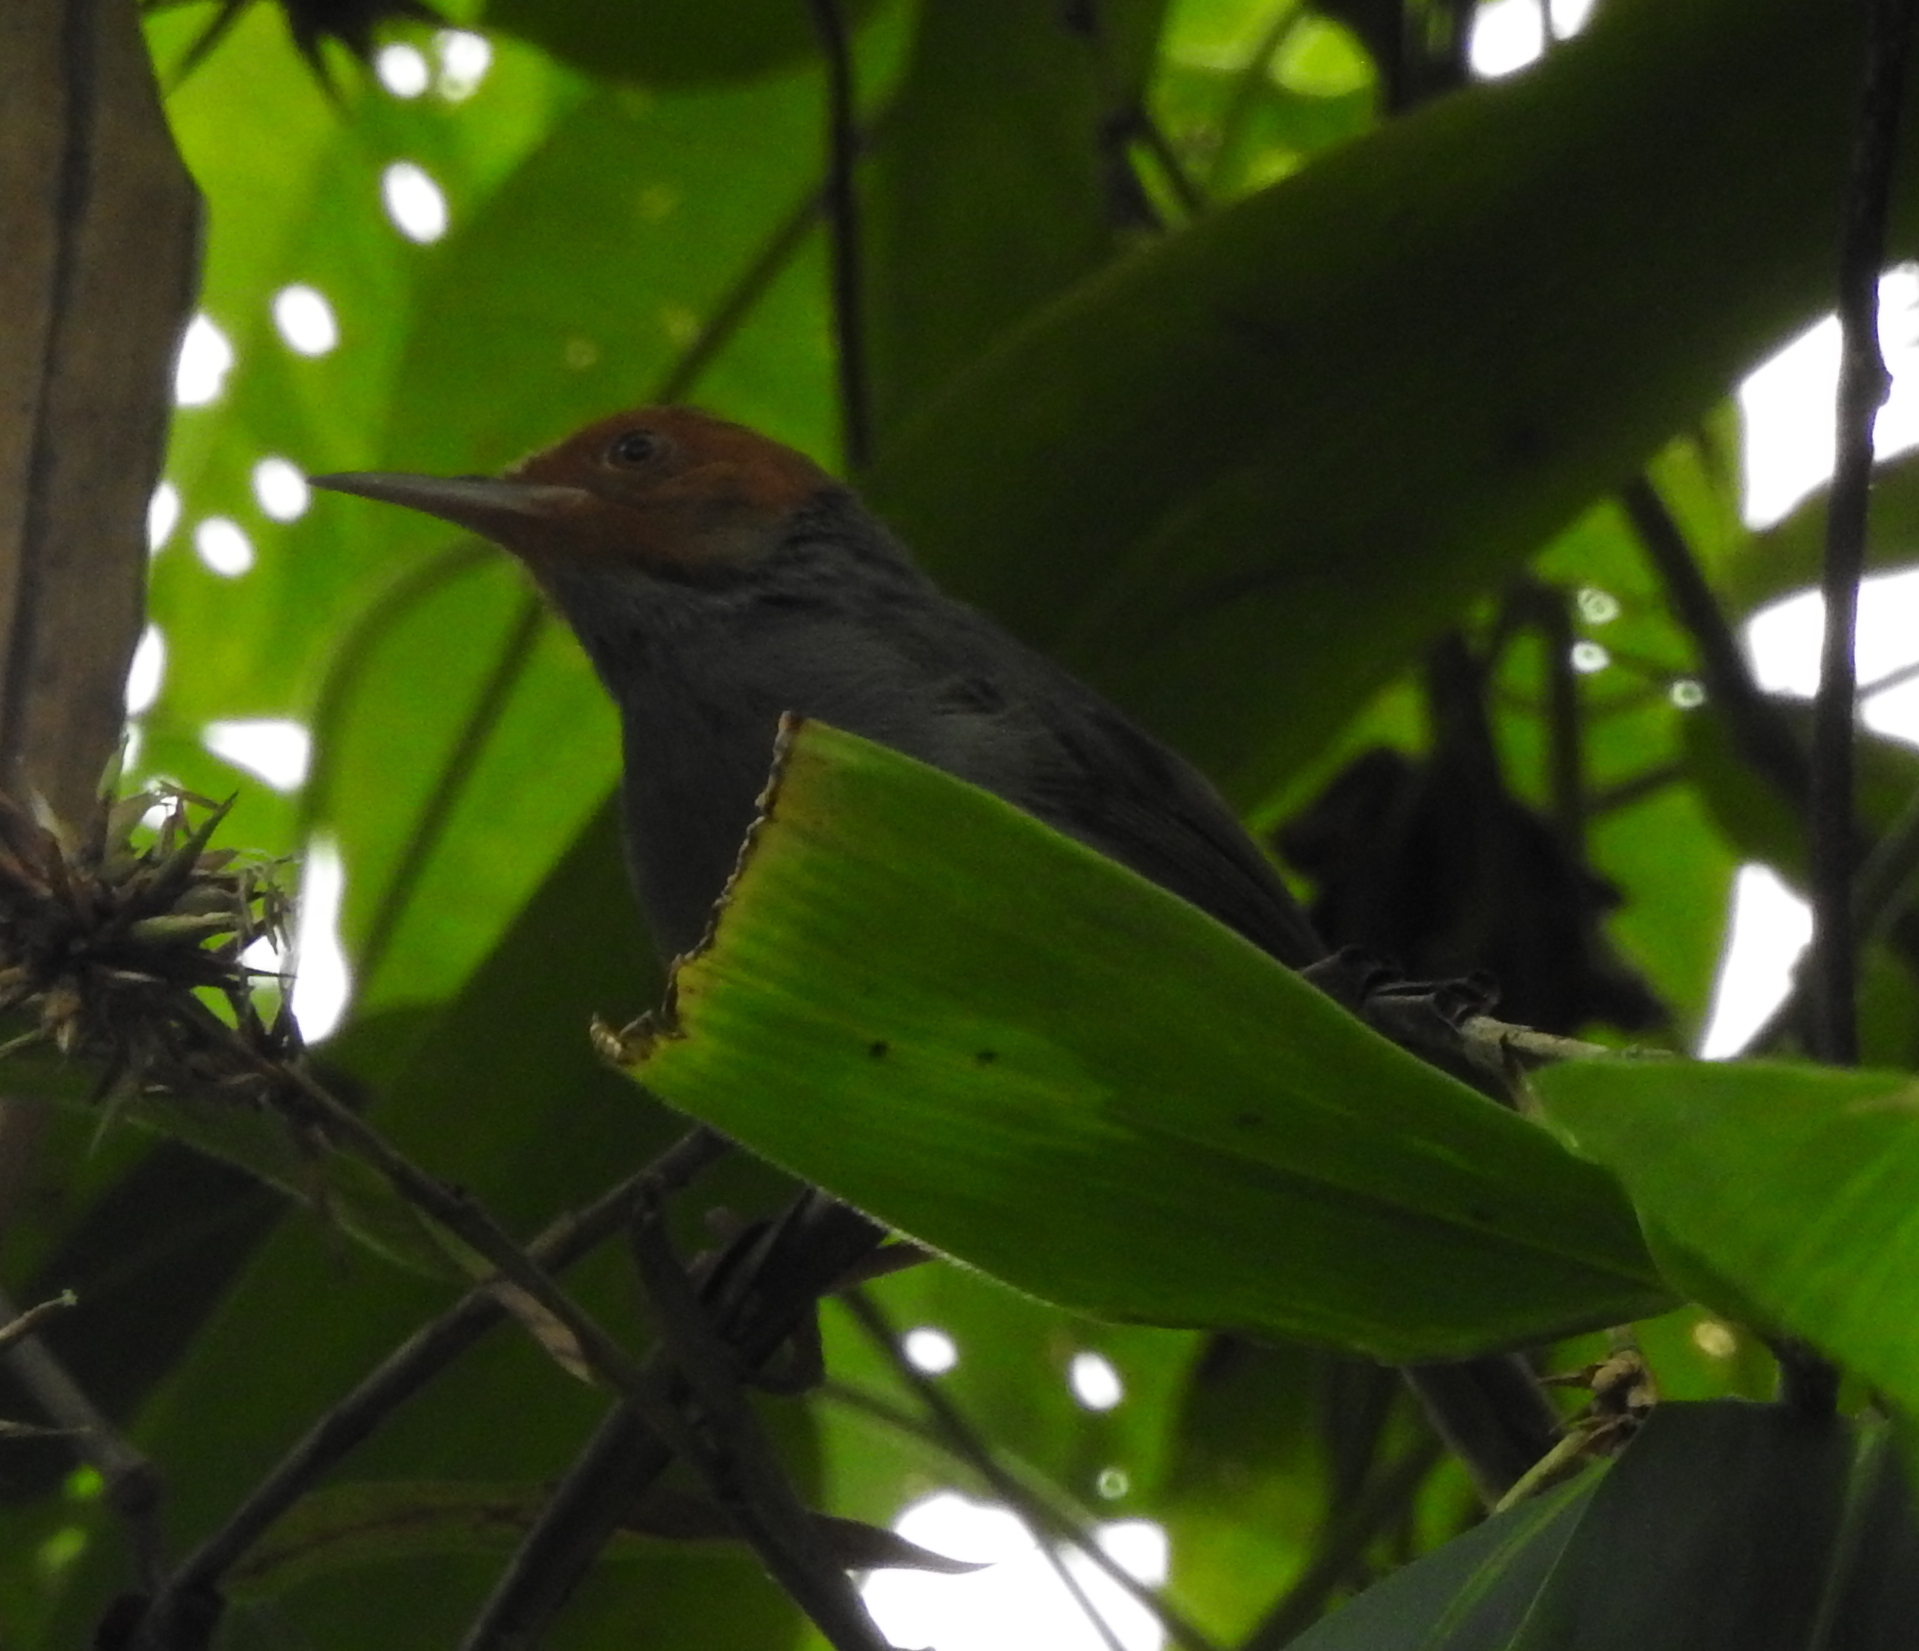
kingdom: Animalia
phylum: Chordata
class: Aves
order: Passeriformes
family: Cisticolidae
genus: Orthotomus
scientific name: Orthotomus ruficeps
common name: Ashy tailorbird
